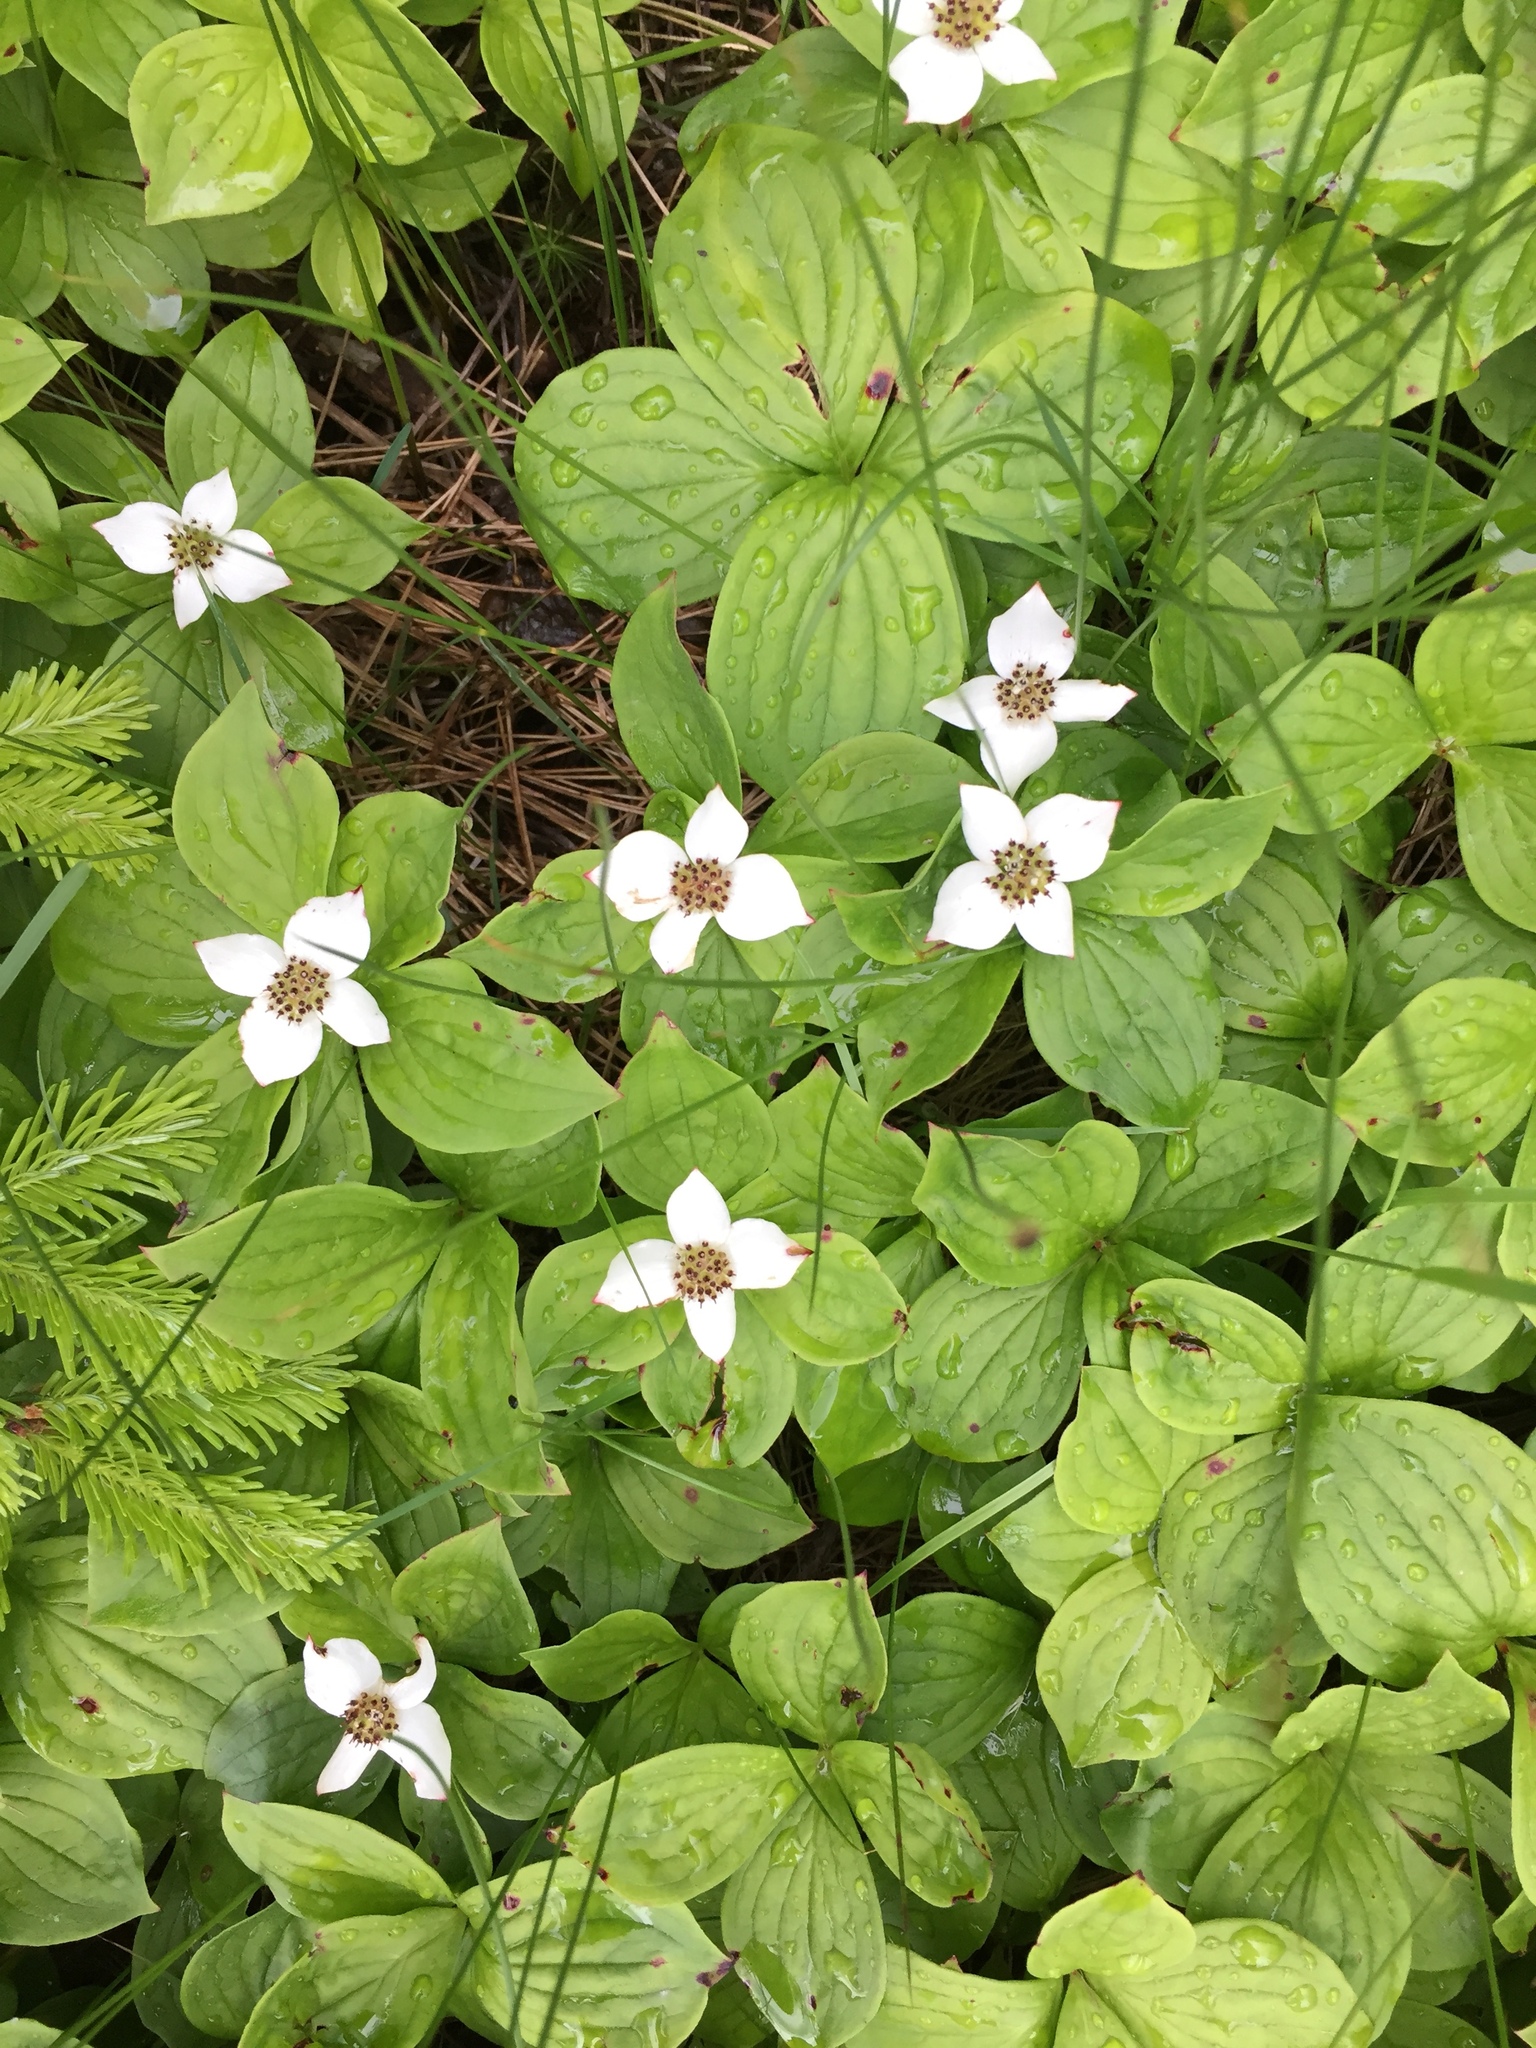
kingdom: Plantae
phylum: Tracheophyta
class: Magnoliopsida
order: Cornales
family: Cornaceae
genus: Cornus
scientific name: Cornus canadensis
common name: Creeping dogwood
